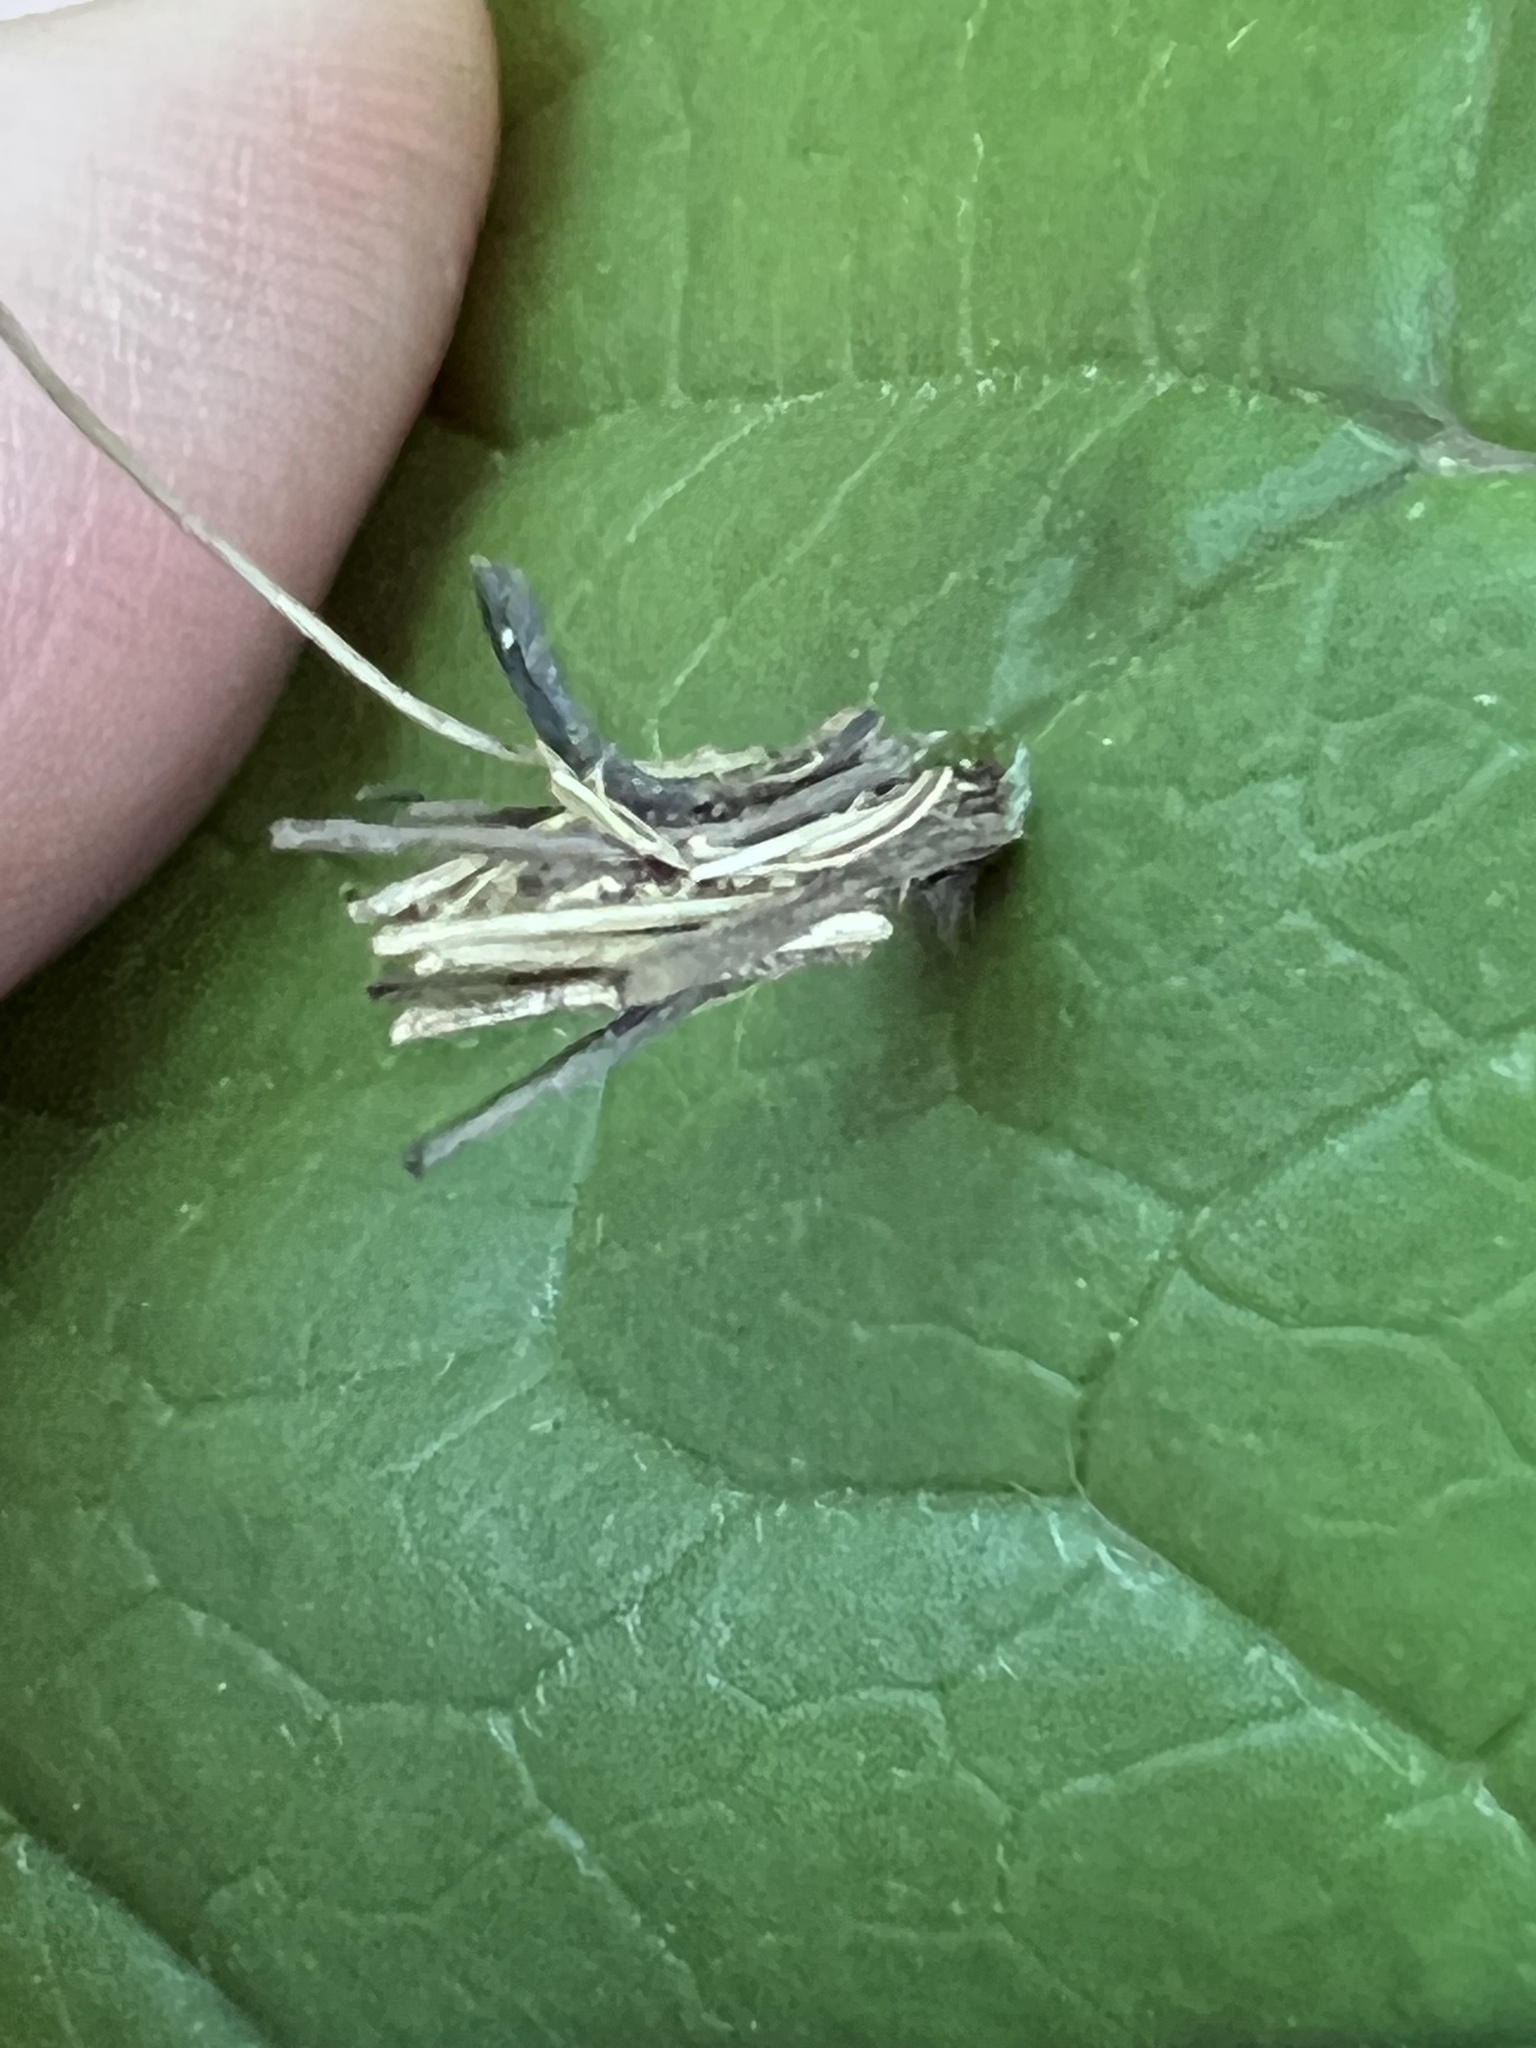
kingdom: Animalia
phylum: Arthropoda
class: Insecta
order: Lepidoptera
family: Psychidae
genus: Psyche
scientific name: Psyche casta
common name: Common sweep
